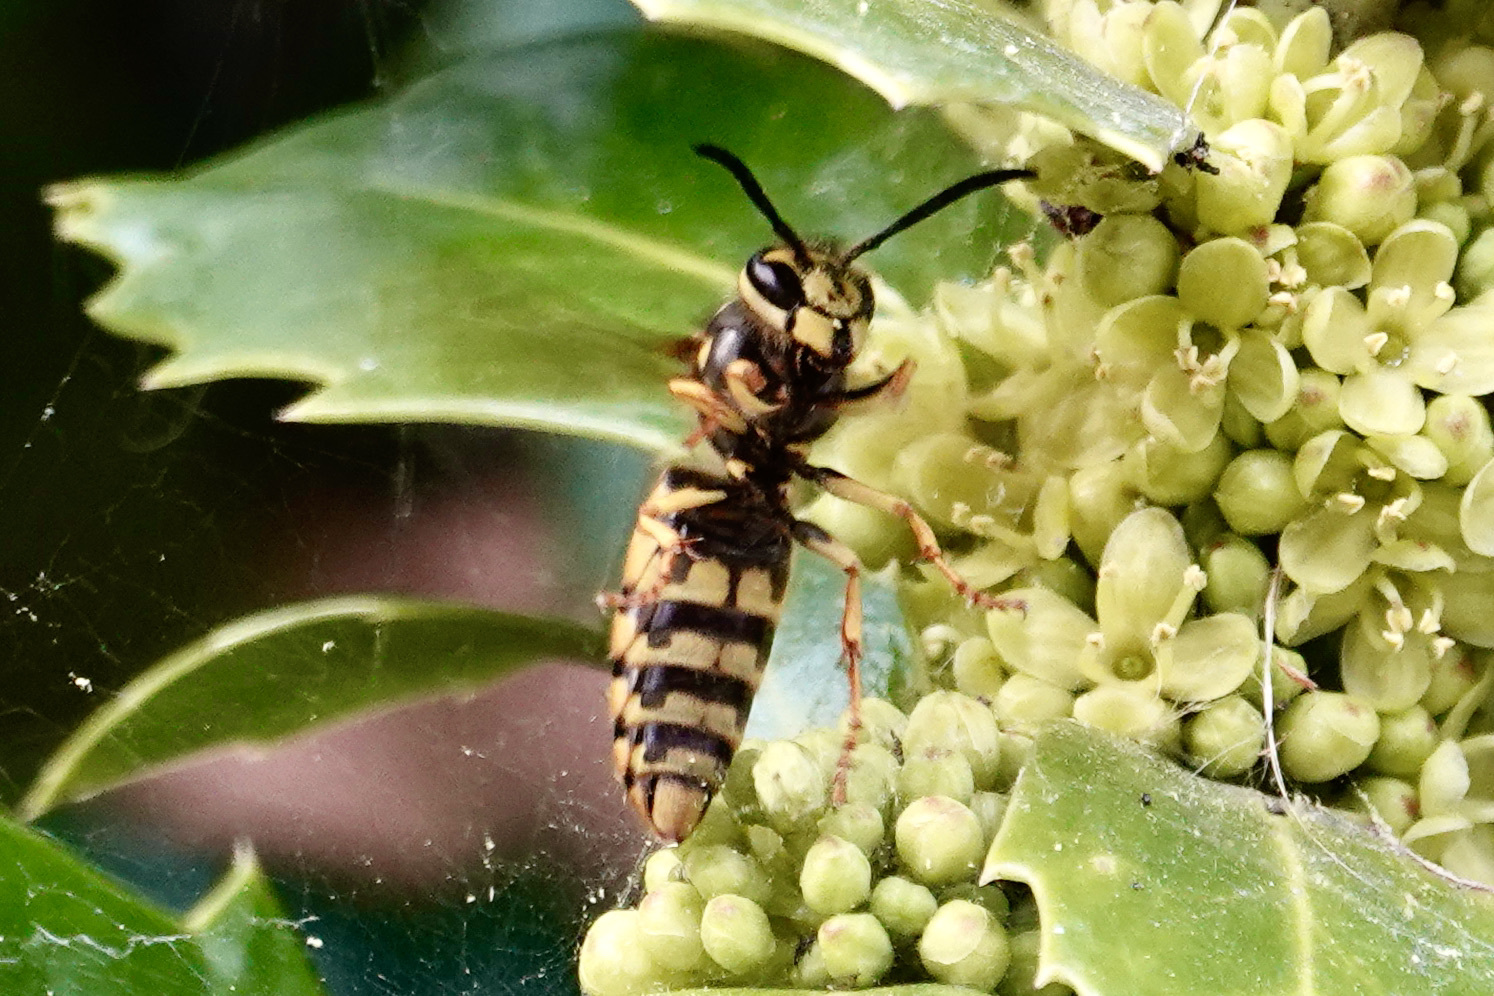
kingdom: Animalia
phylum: Arthropoda
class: Insecta
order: Hymenoptera
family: Vespidae
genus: Vespula
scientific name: Vespula maculifrons
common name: Eastern yellowjacket
